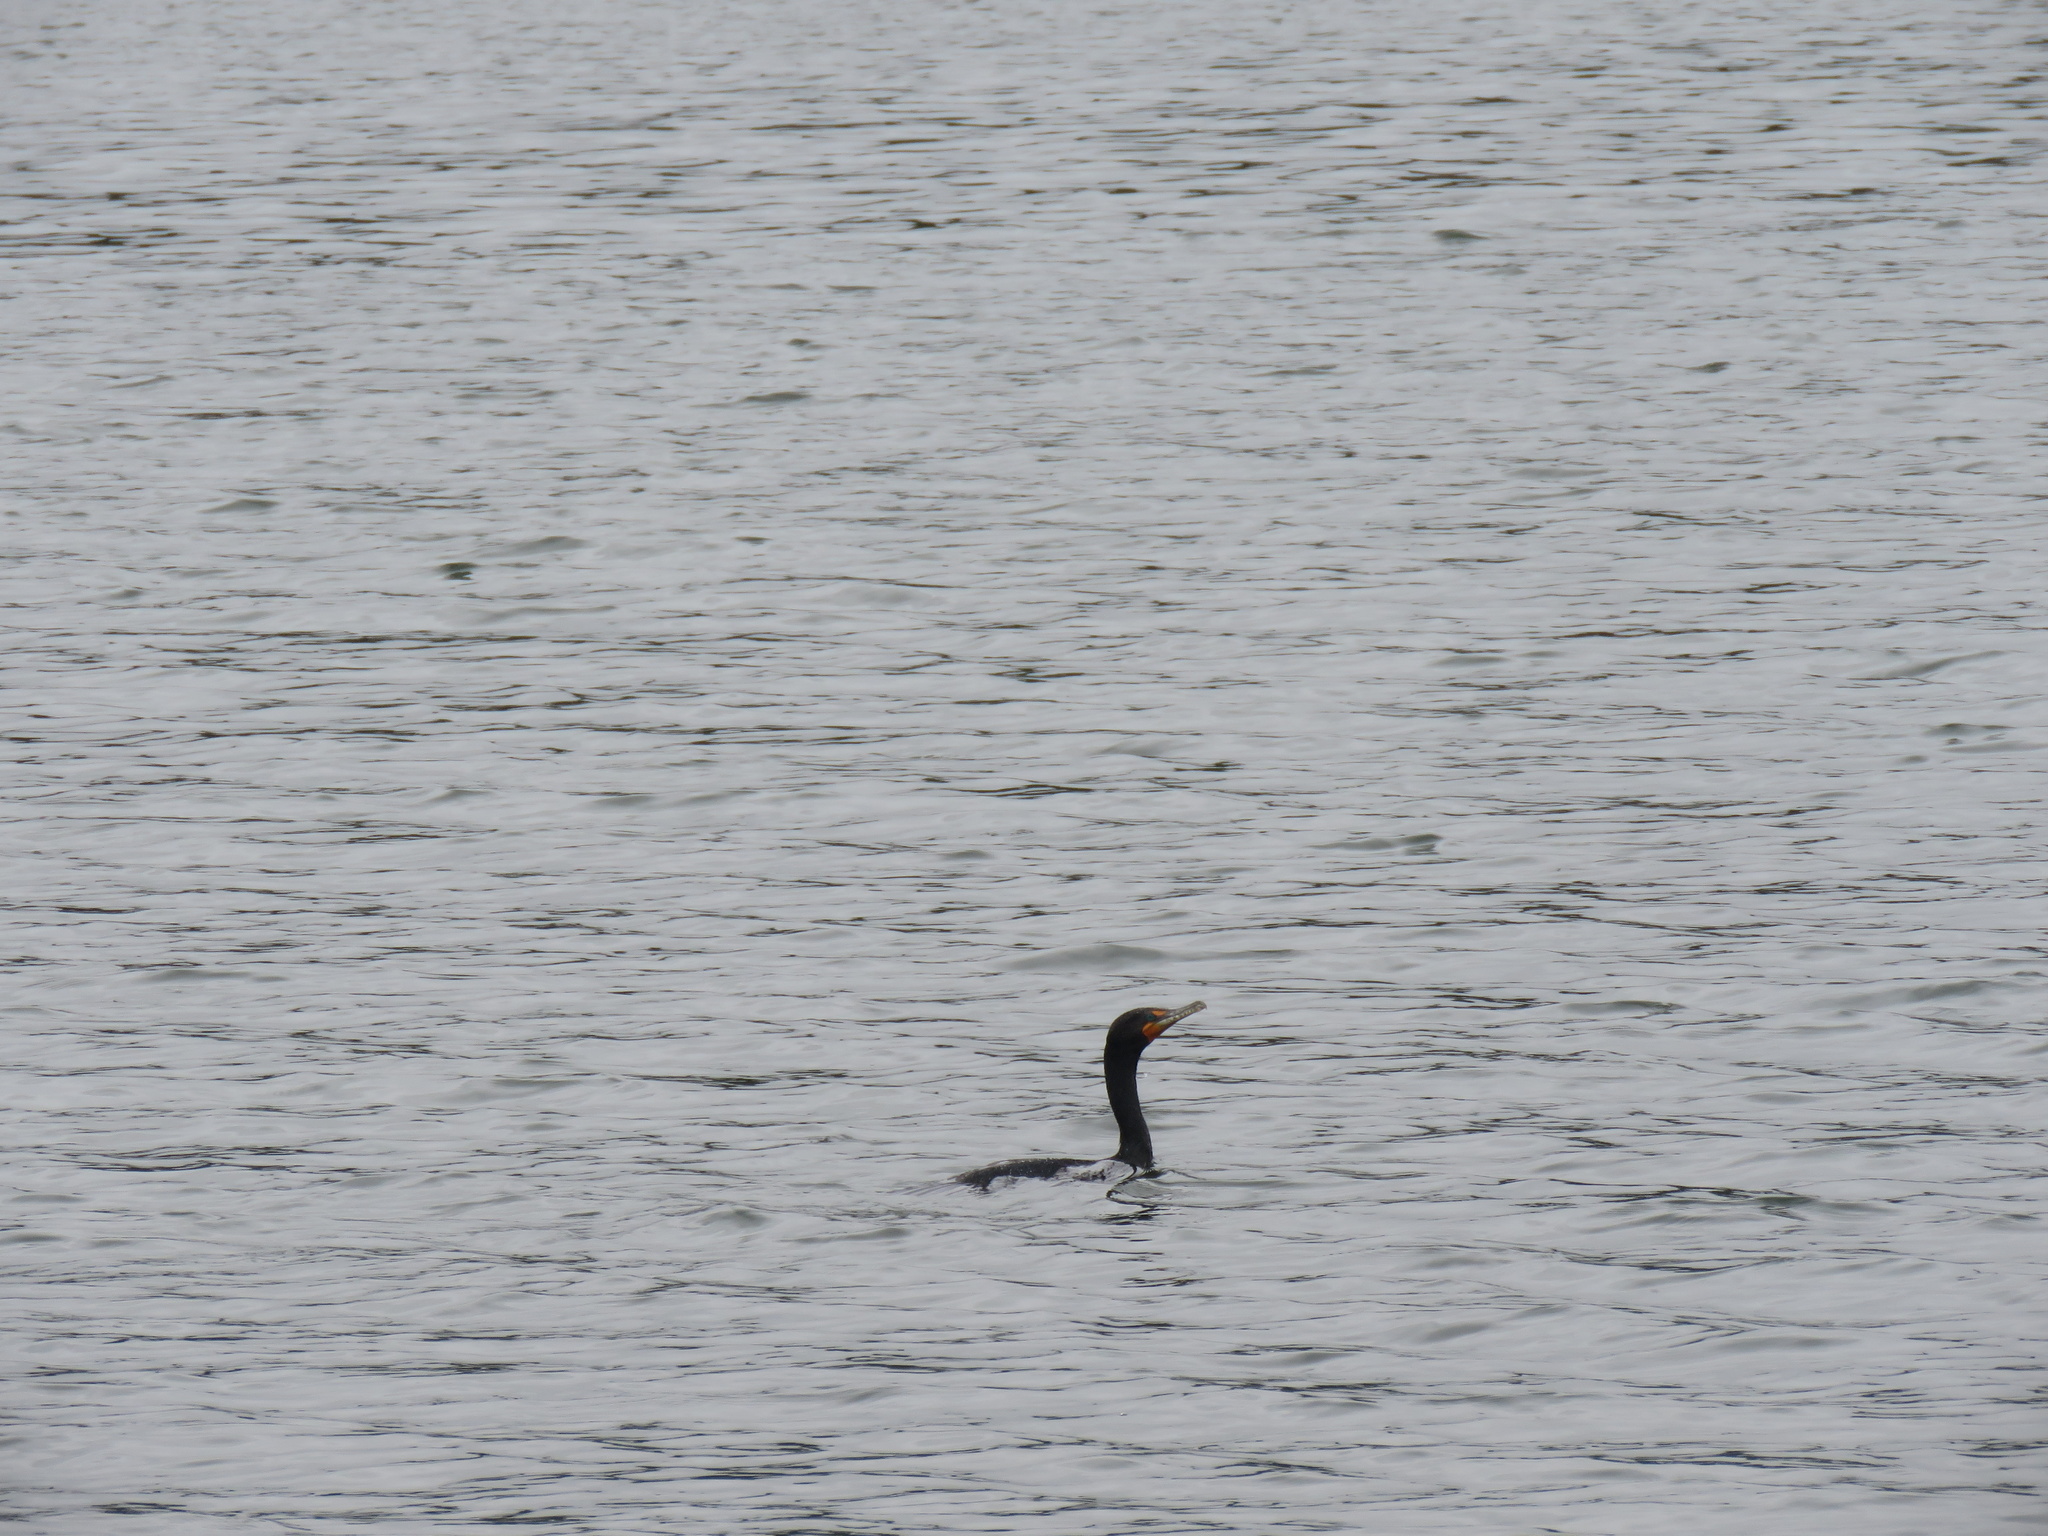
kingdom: Animalia
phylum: Chordata
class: Aves
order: Suliformes
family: Phalacrocoracidae
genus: Phalacrocorax
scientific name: Phalacrocorax auritus
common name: Double-crested cormorant
